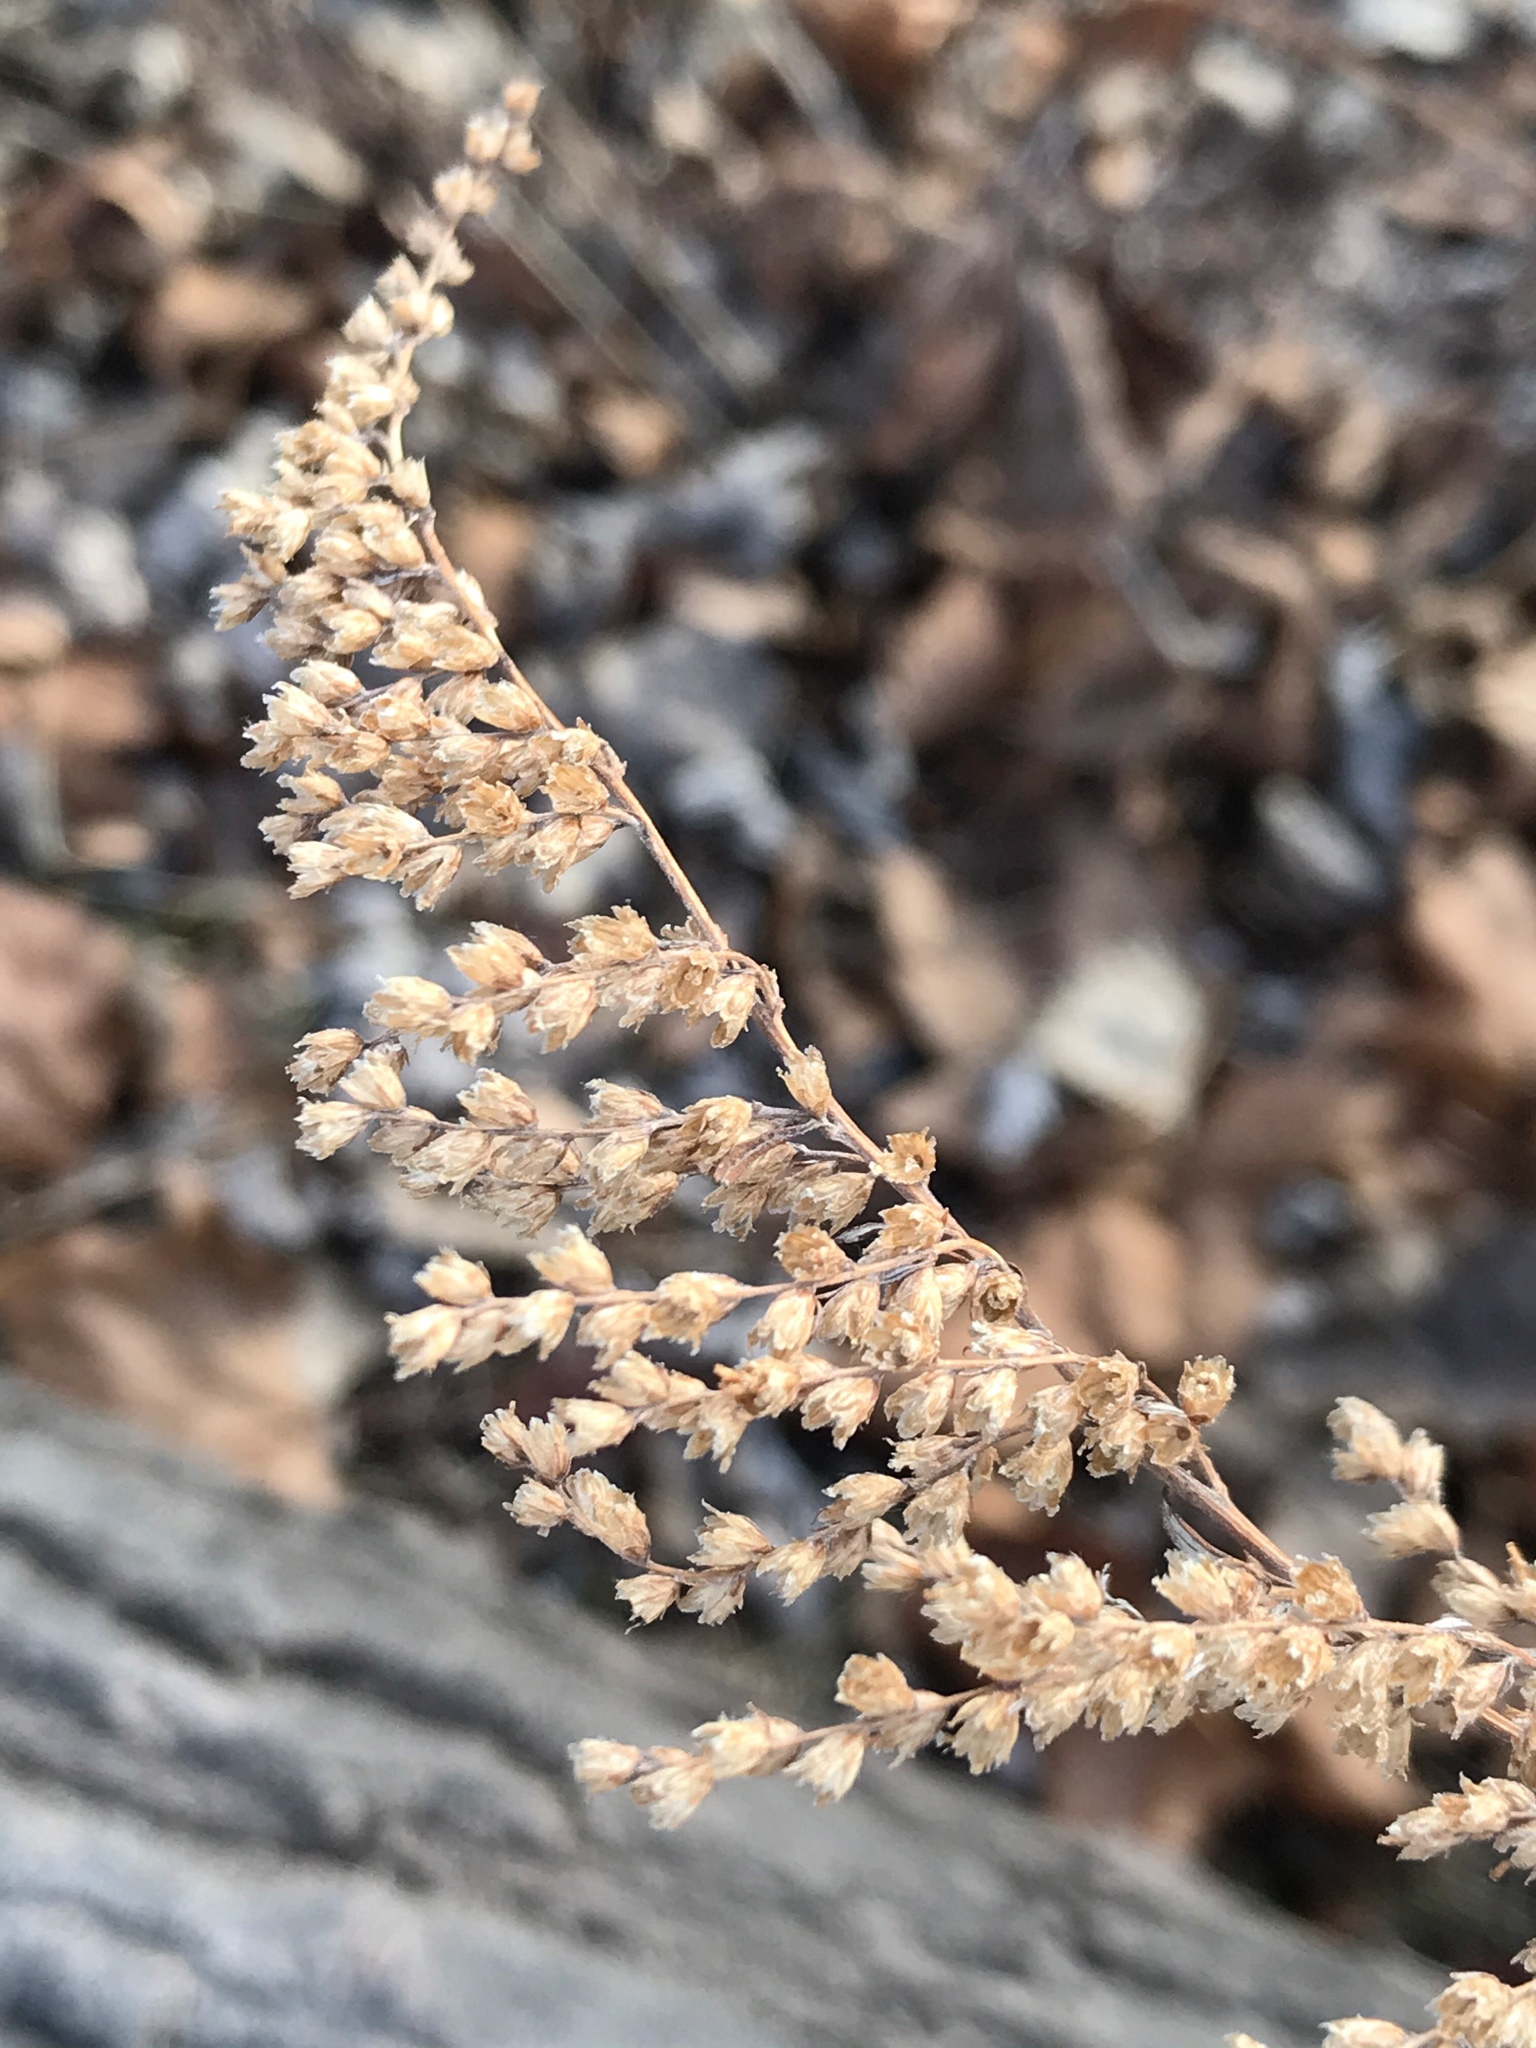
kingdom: Plantae
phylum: Tracheophyta
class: Magnoliopsida
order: Asterales
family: Asteraceae
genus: Artemisia
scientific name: Artemisia vulgaris
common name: Mugwort
